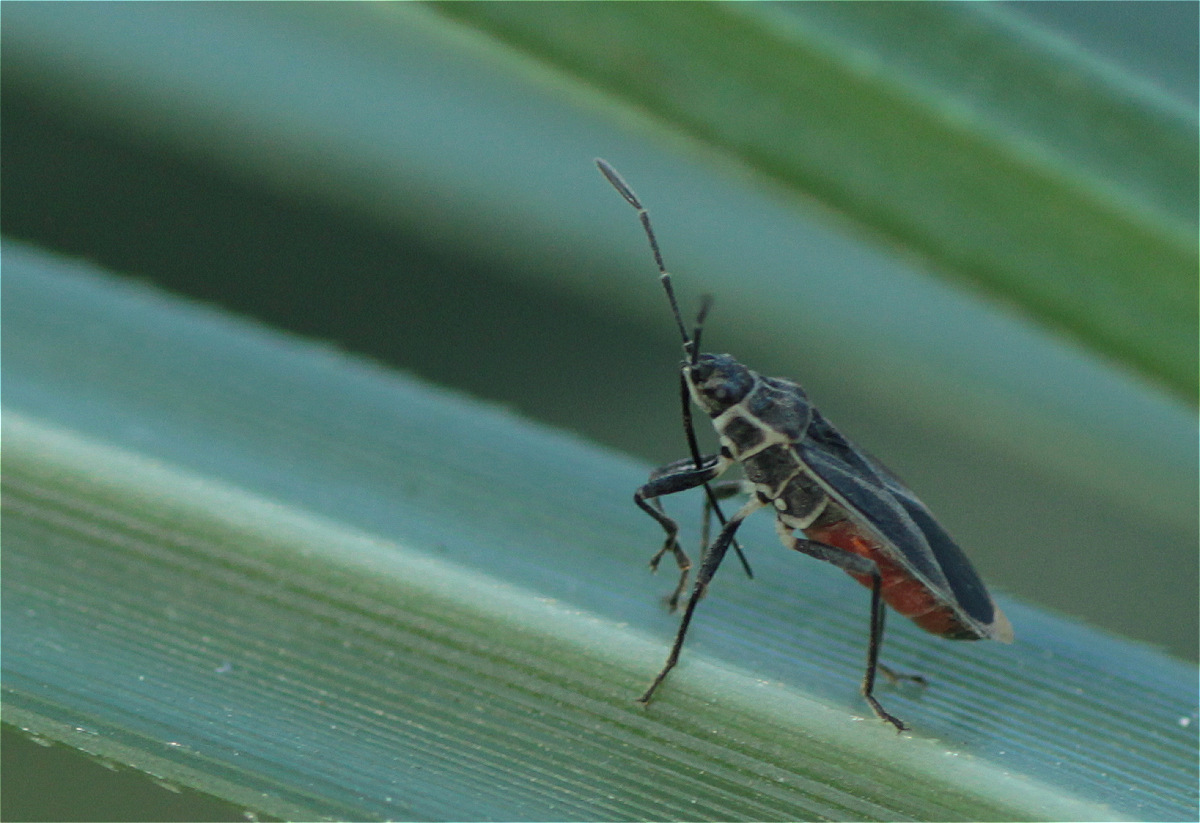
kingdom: Animalia
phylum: Arthropoda
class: Insecta
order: Hemiptera
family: Lygaeidae
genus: Craspeduchus
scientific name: Craspeduchus nigrolimbatus
